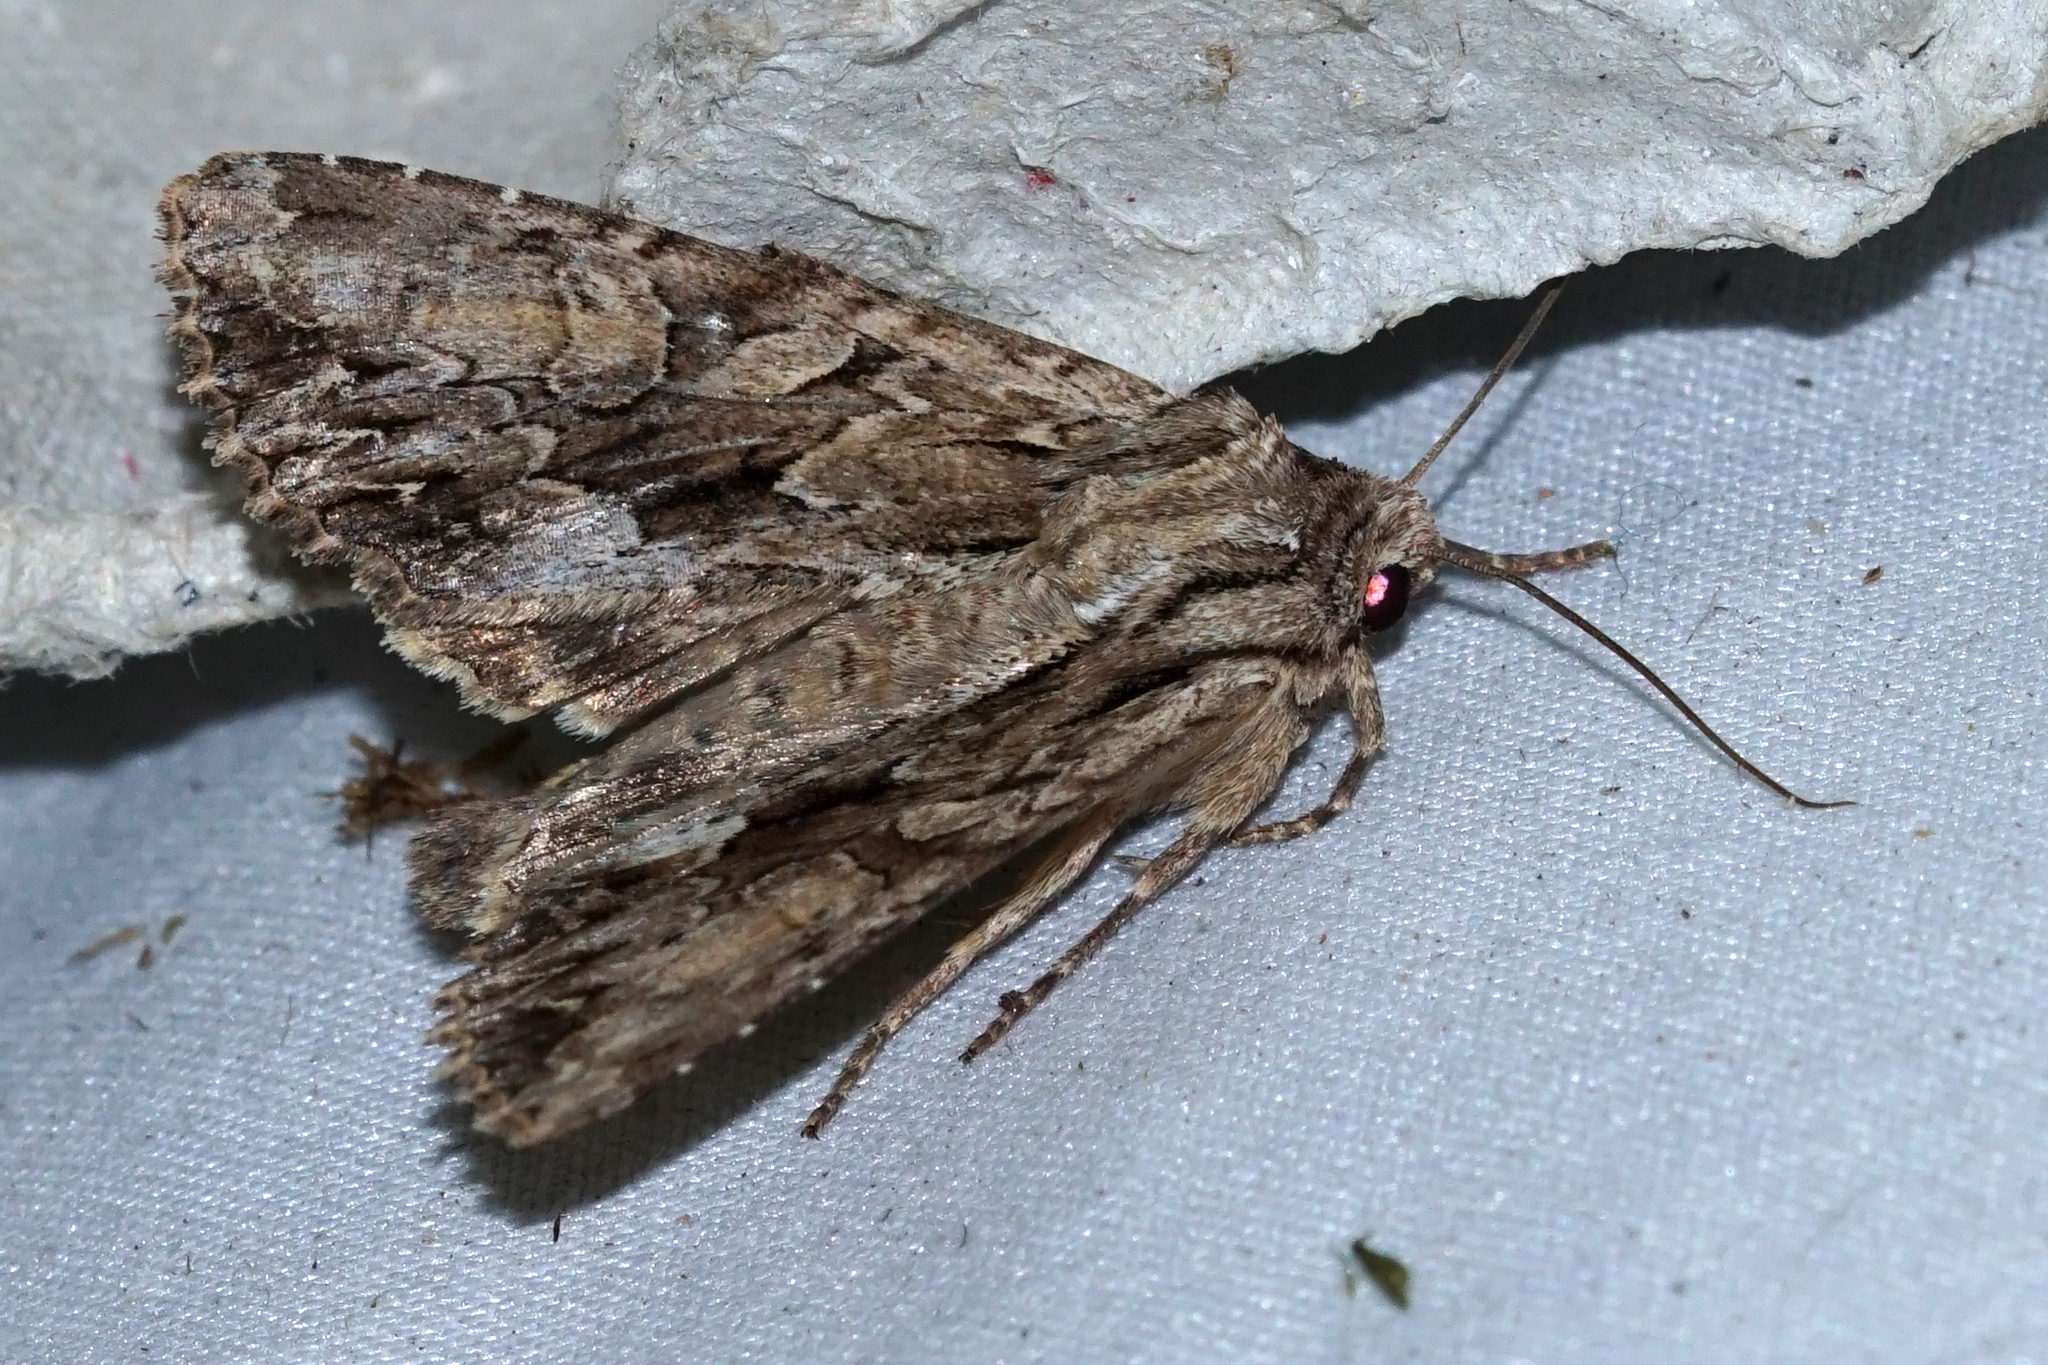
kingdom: Animalia
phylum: Arthropoda
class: Insecta
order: Lepidoptera
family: Noctuidae
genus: Apamea
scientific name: Apamea monoglypha
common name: Dark arches
